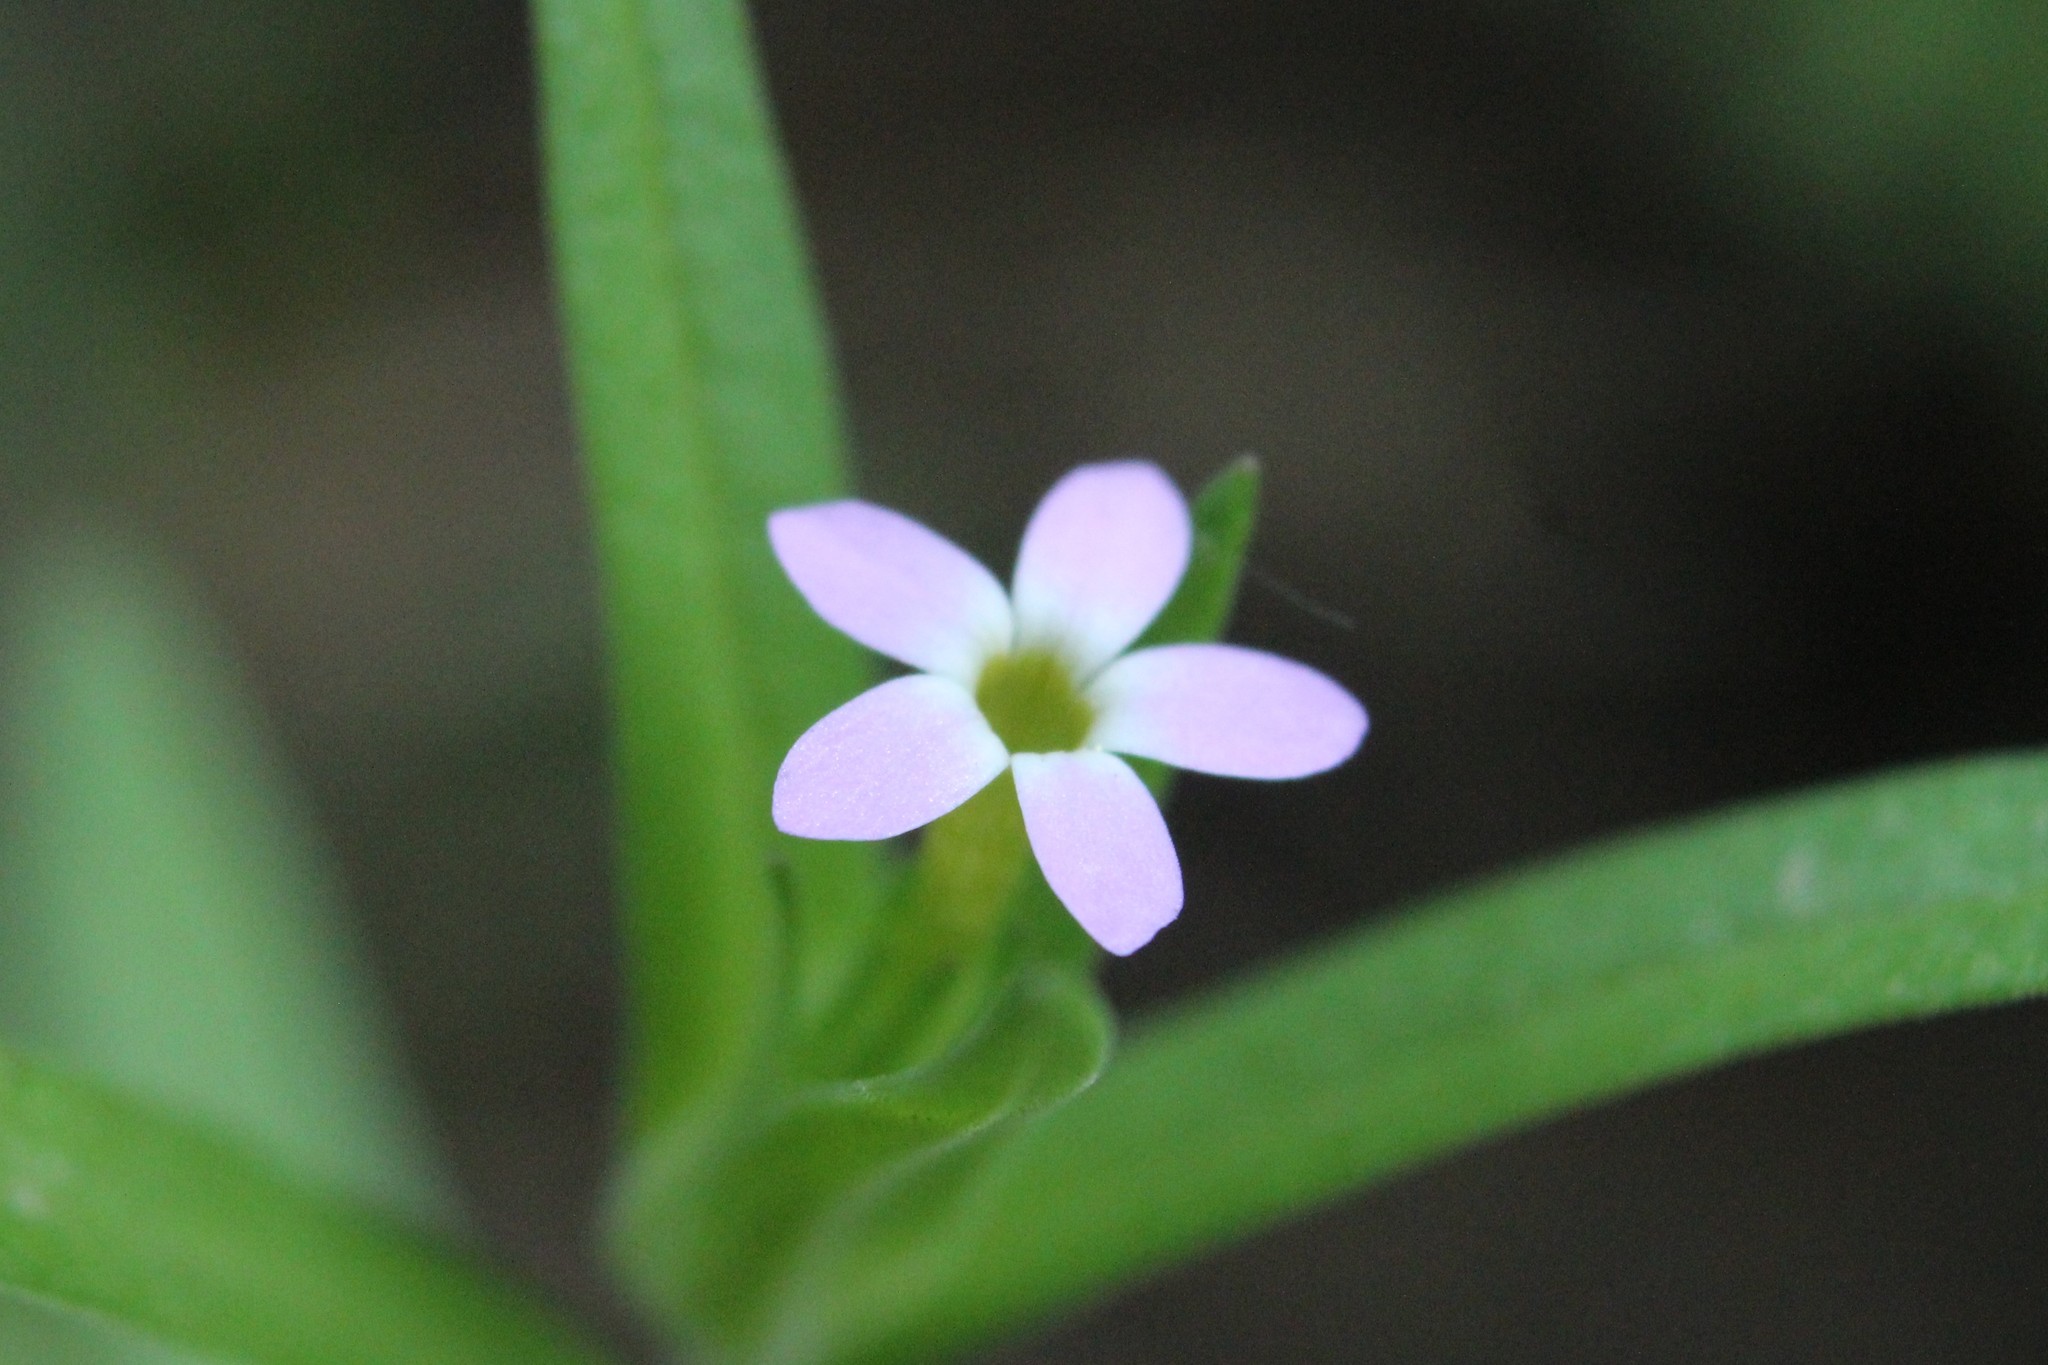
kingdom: Plantae
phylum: Tracheophyta
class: Magnoliopsida
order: Ericales
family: Polemoniaceae
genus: Collomia
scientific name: Collomia linearis
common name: Tiny trumpet
